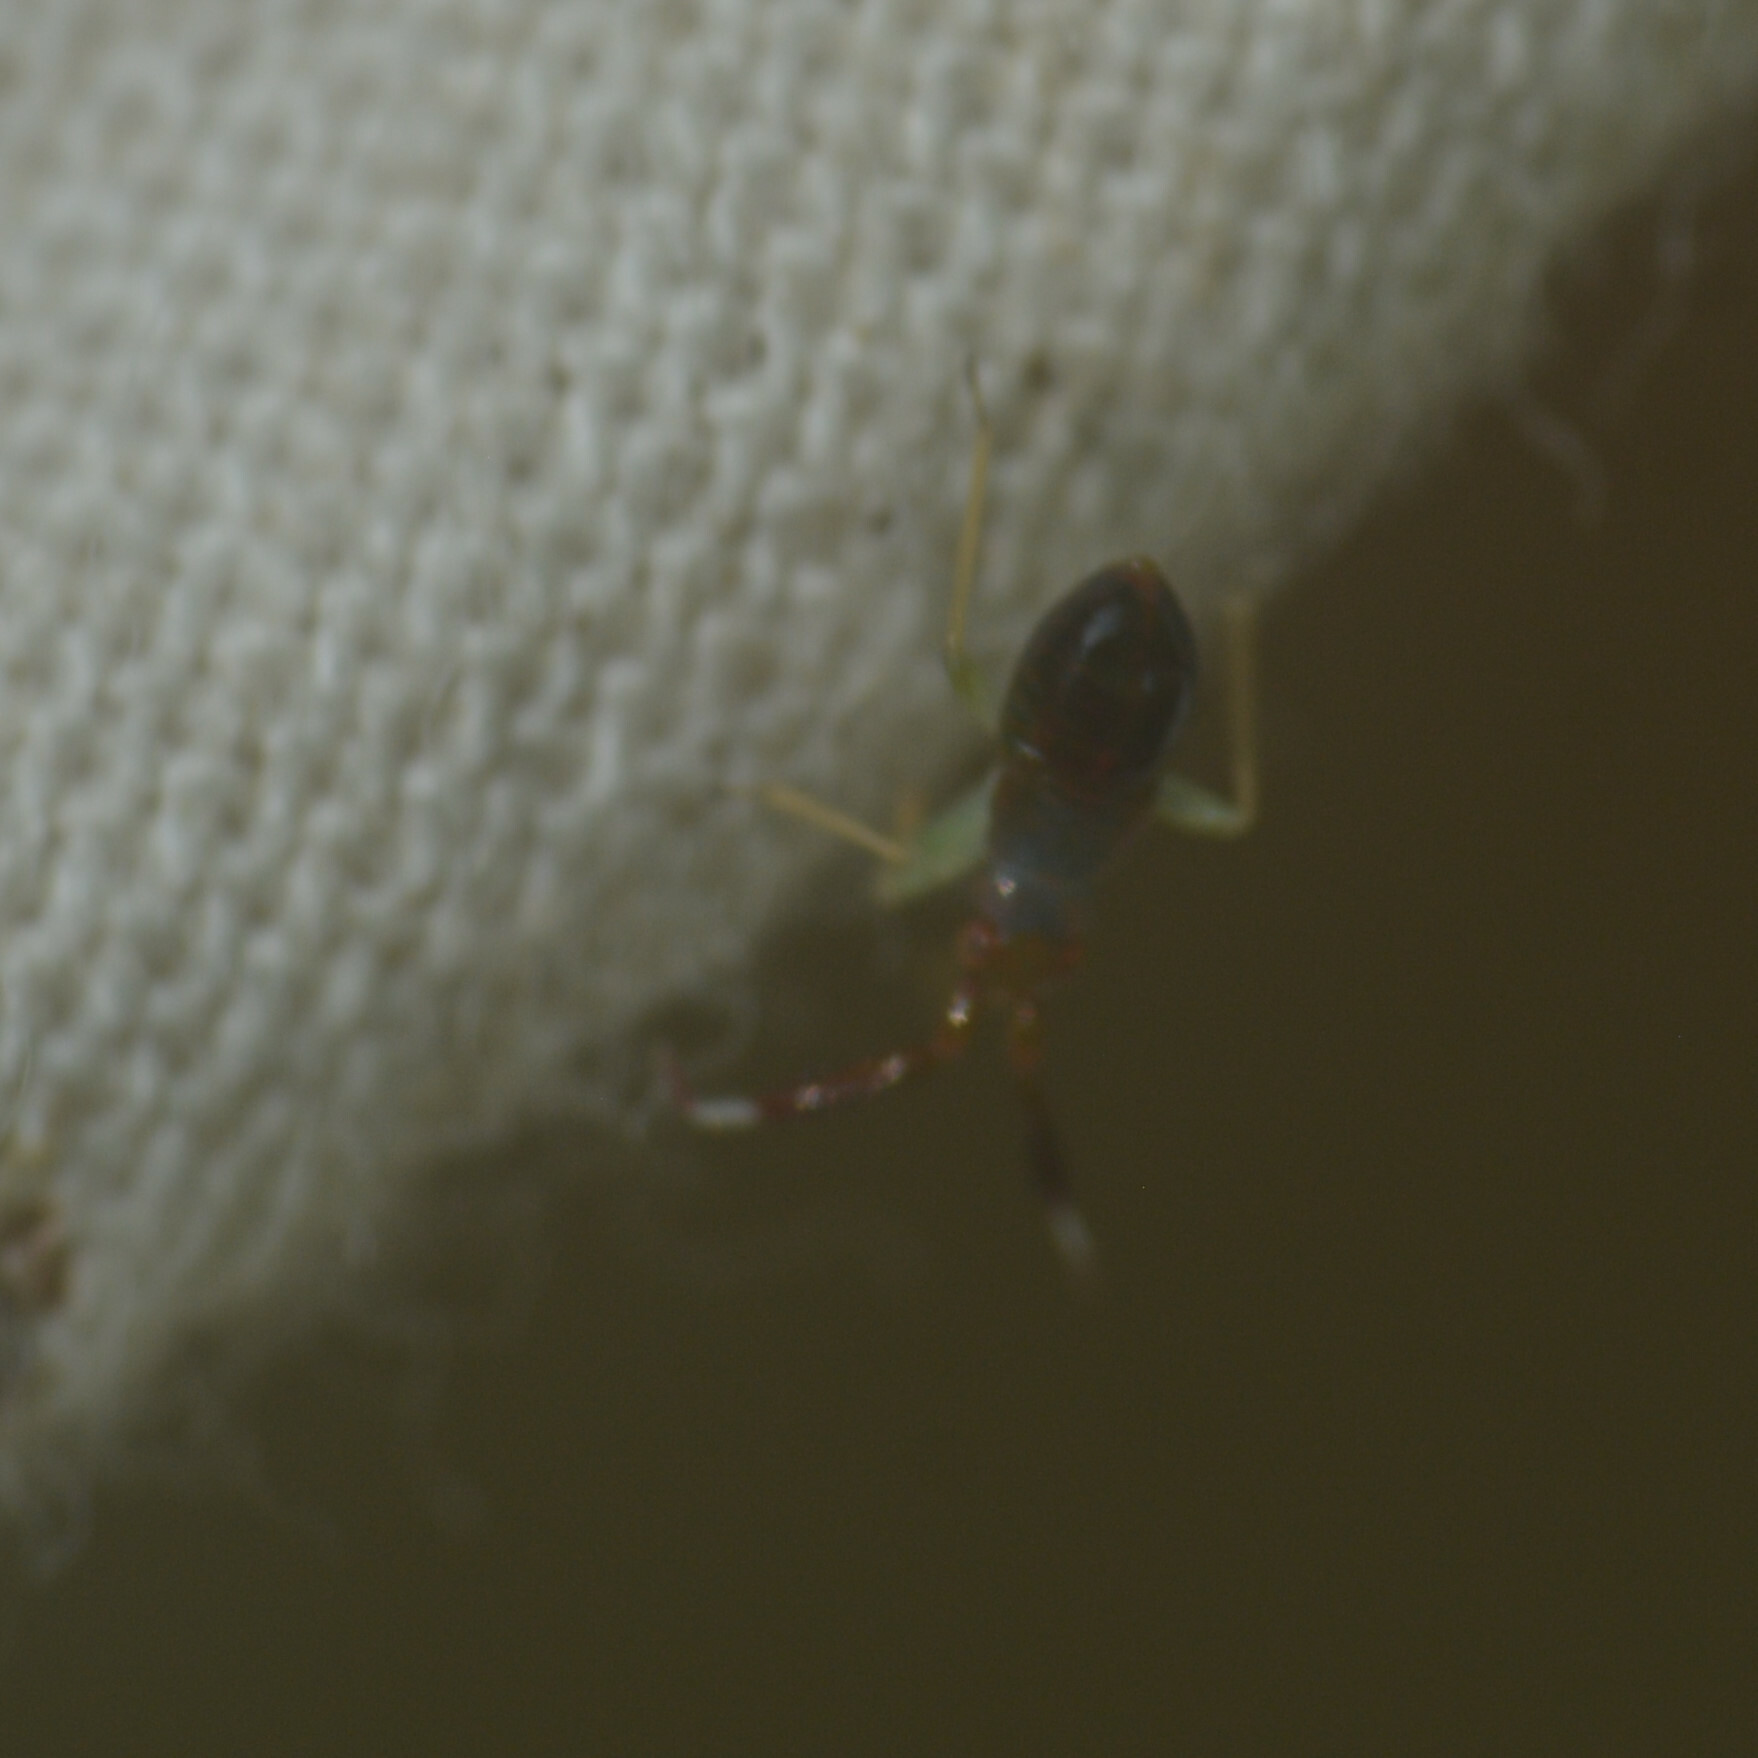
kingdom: Animalia
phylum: Arthropoda
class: Insecta
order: Hemiptera
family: Miridae
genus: Heterotoma
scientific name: Heterotoma planicornis
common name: Plant bug
